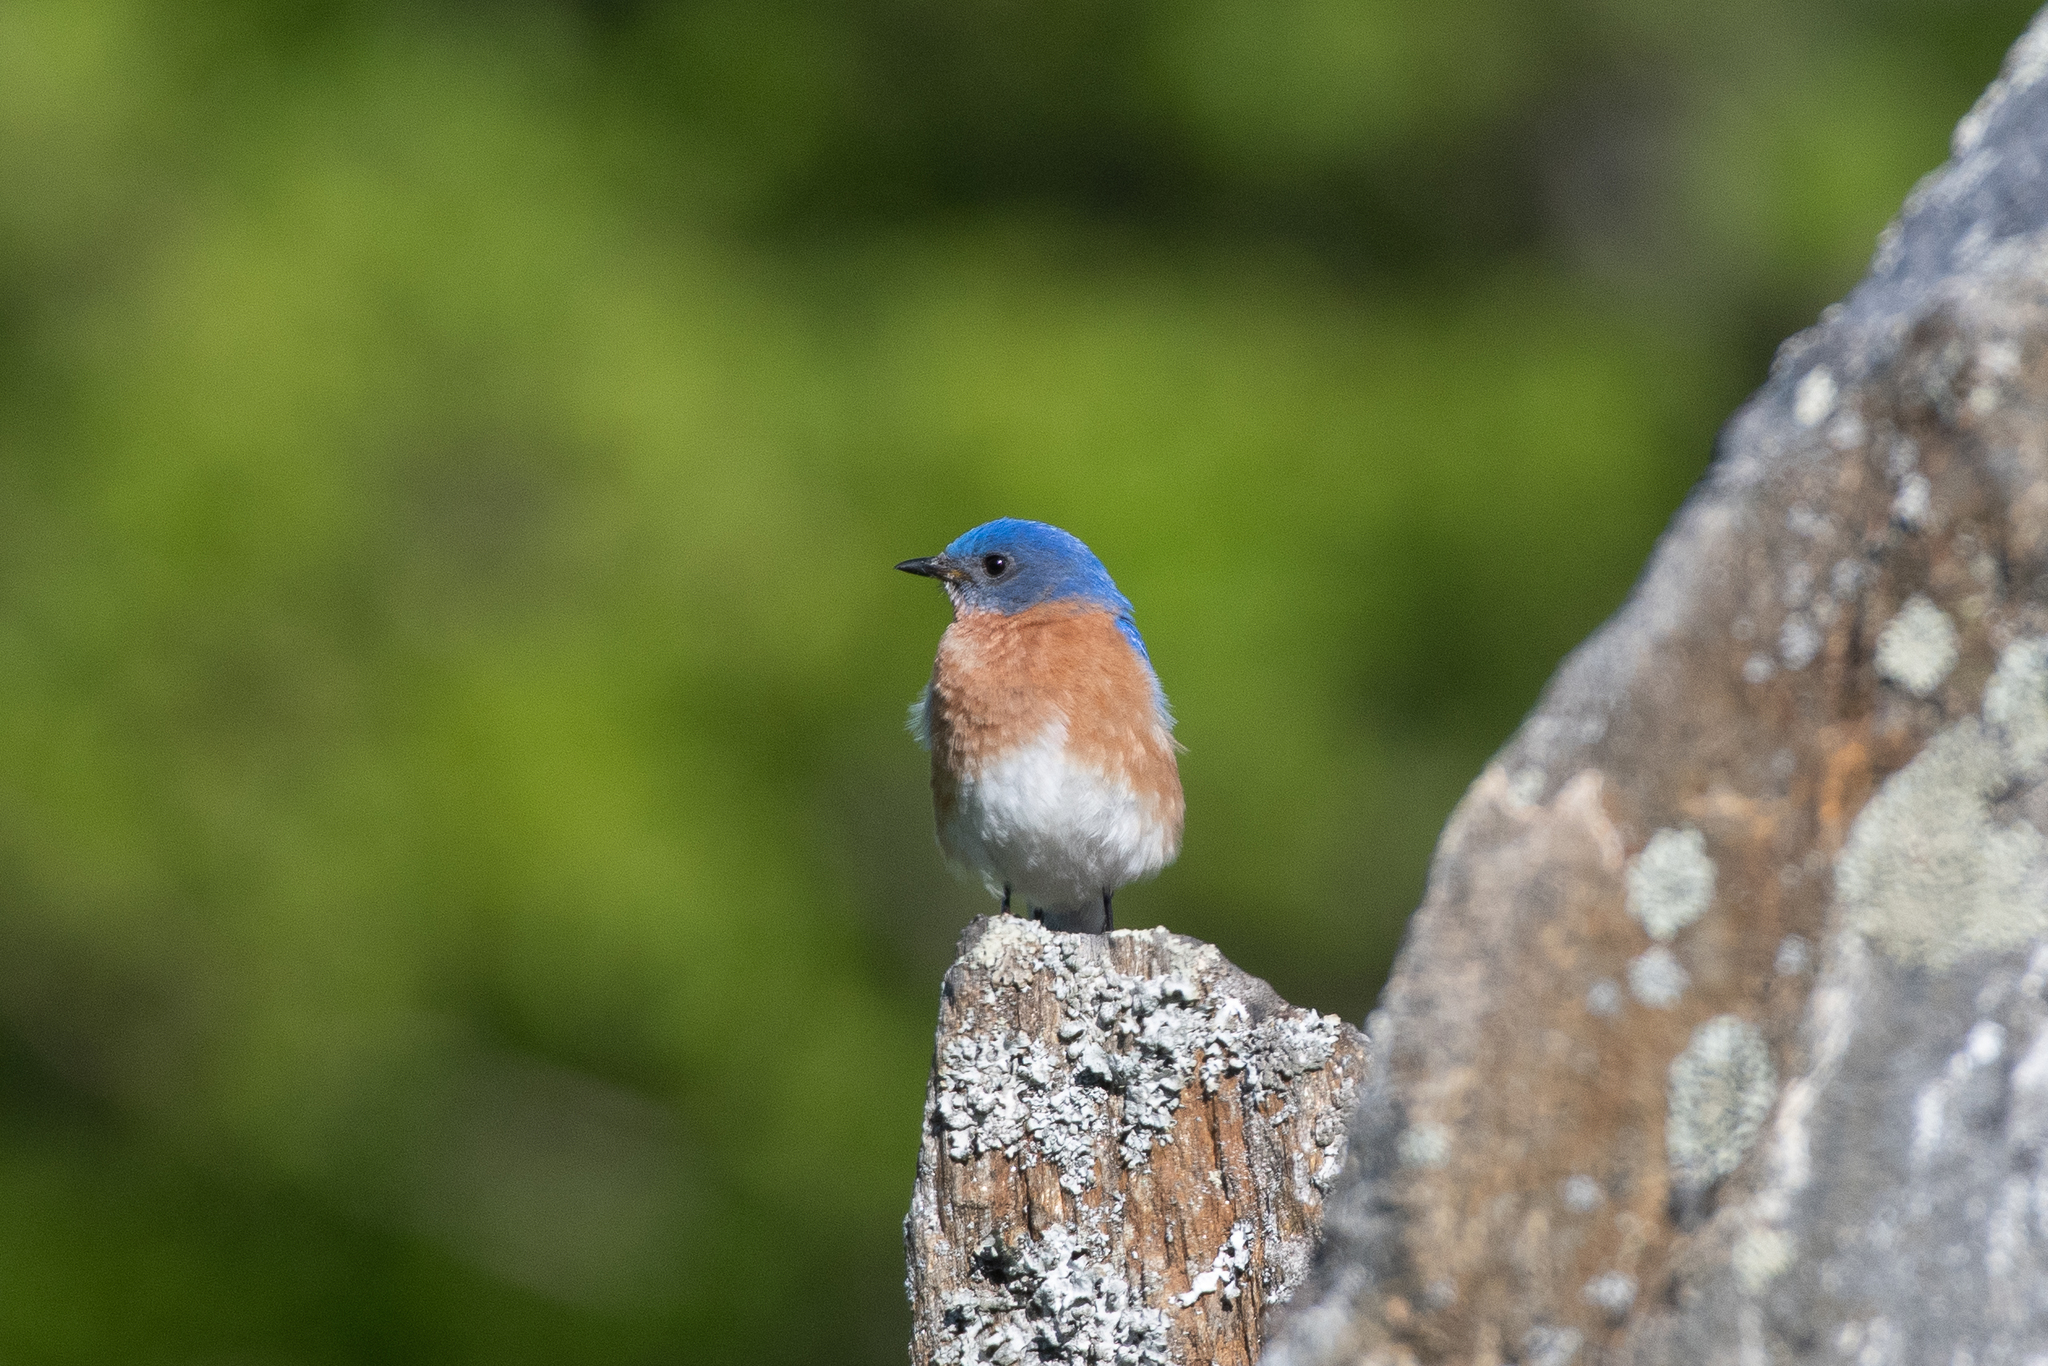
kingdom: Animalia
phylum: Chordata
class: Aves
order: Passeriformes
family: Turdidae
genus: Sialia
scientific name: Sialia sialis
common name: Eastern bluebird
